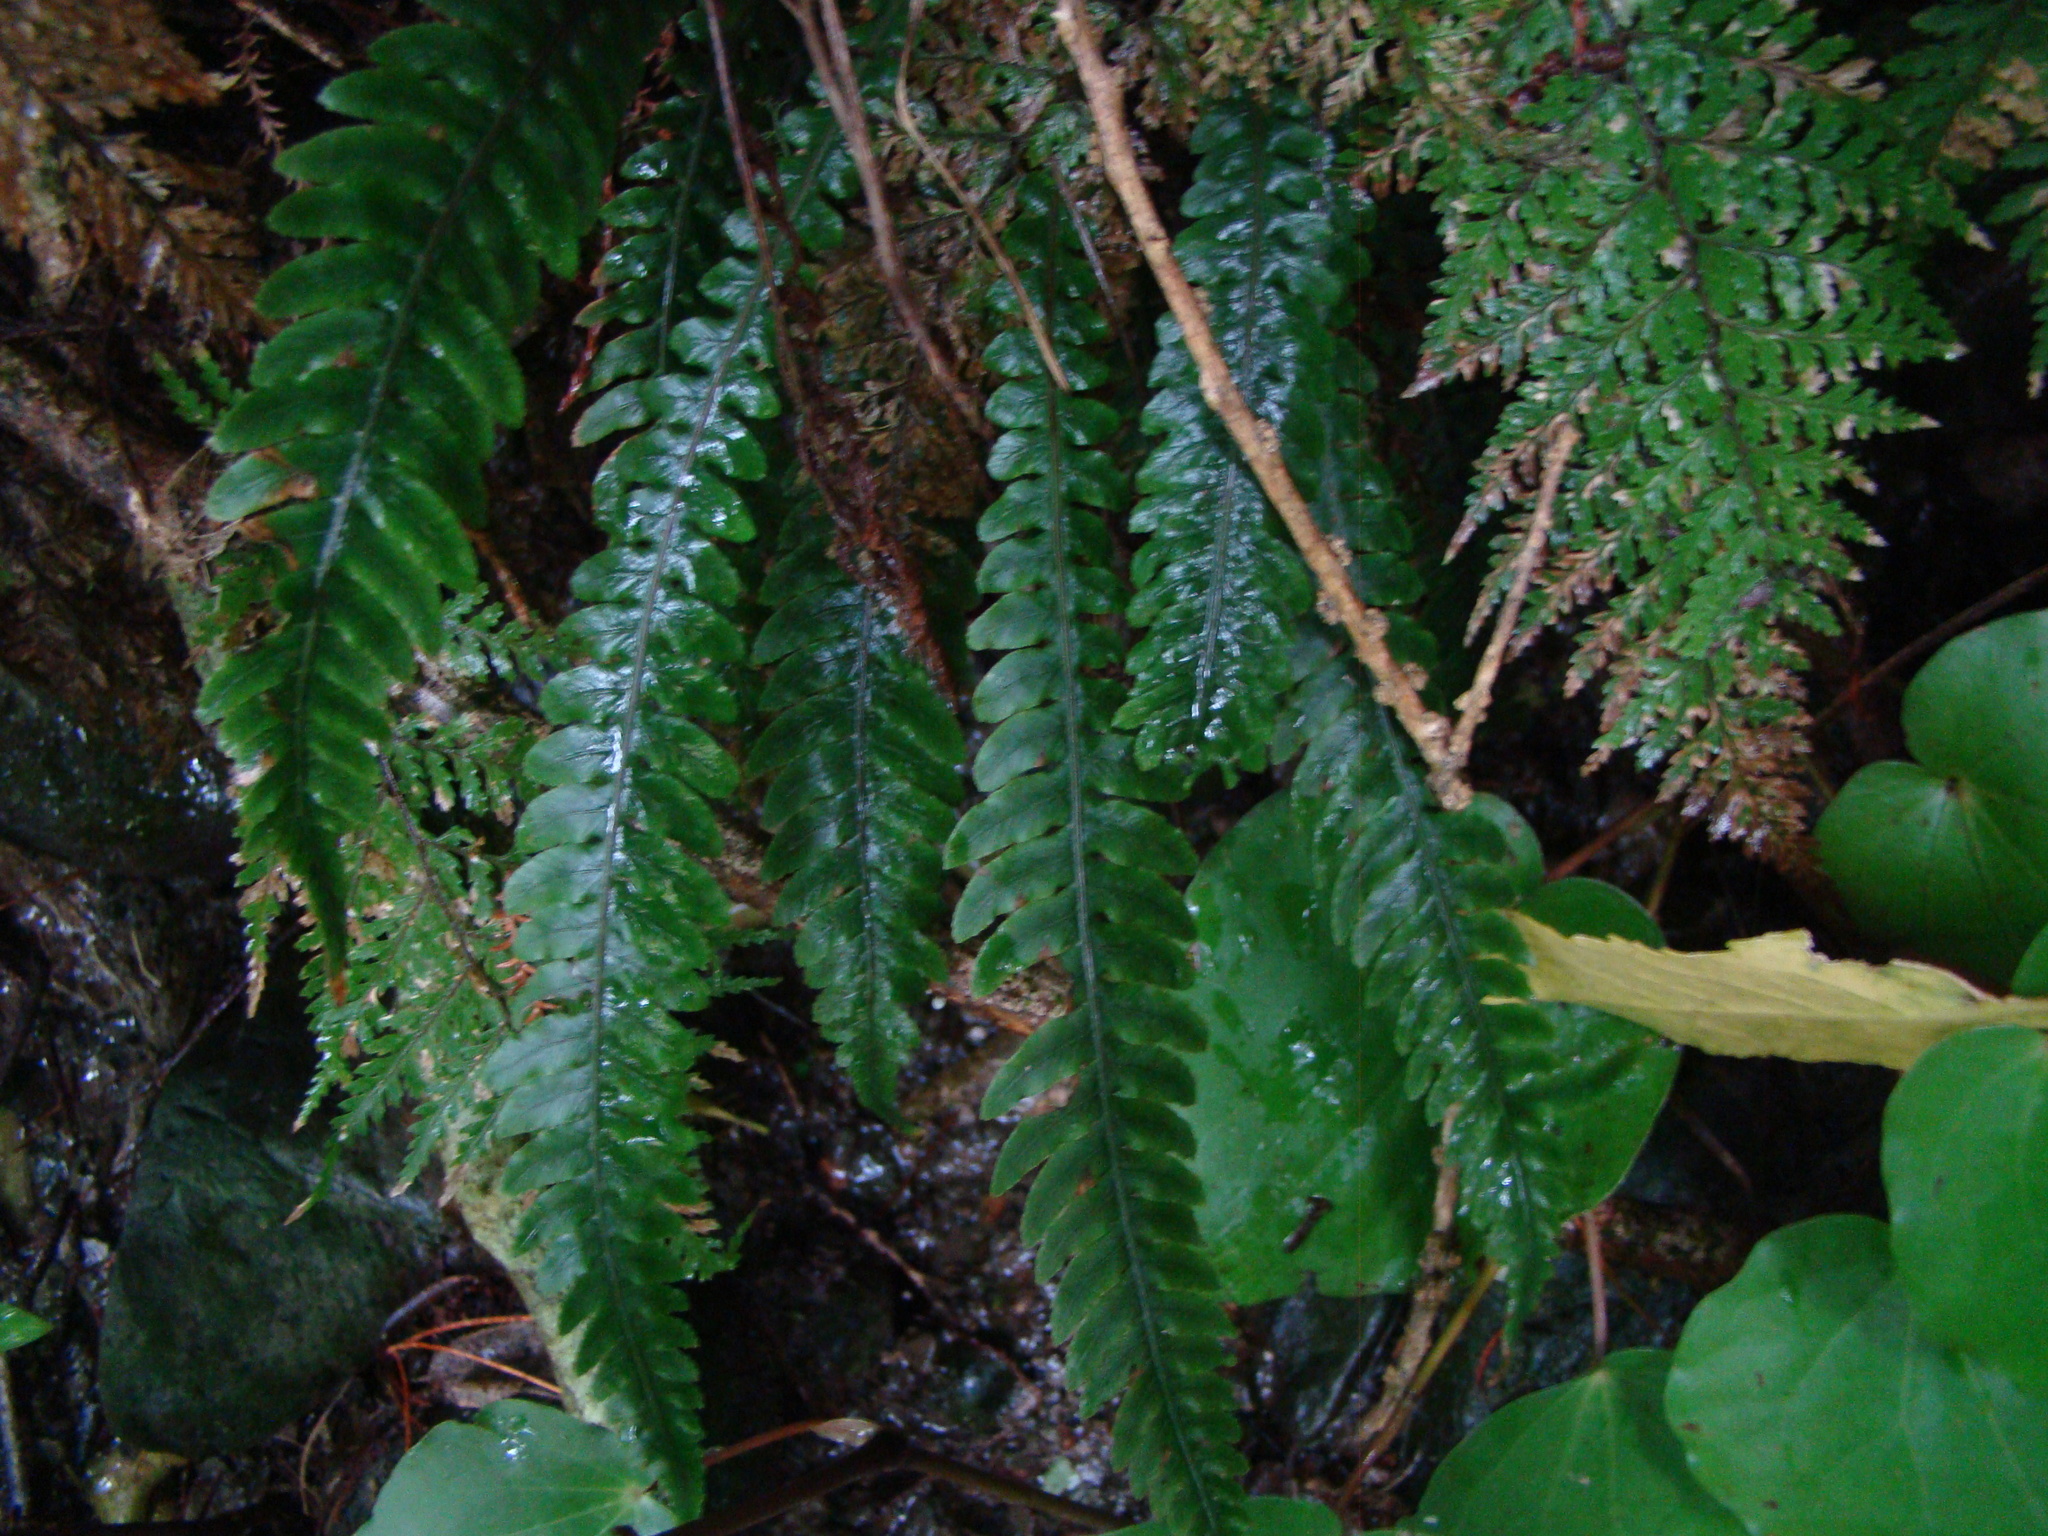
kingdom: Plantae
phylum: Tracheophyta
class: Polypodiopsida
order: Polypodiales
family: Blechnaceae
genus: Austroblechnum
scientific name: Austroblechnum lanceolatum
